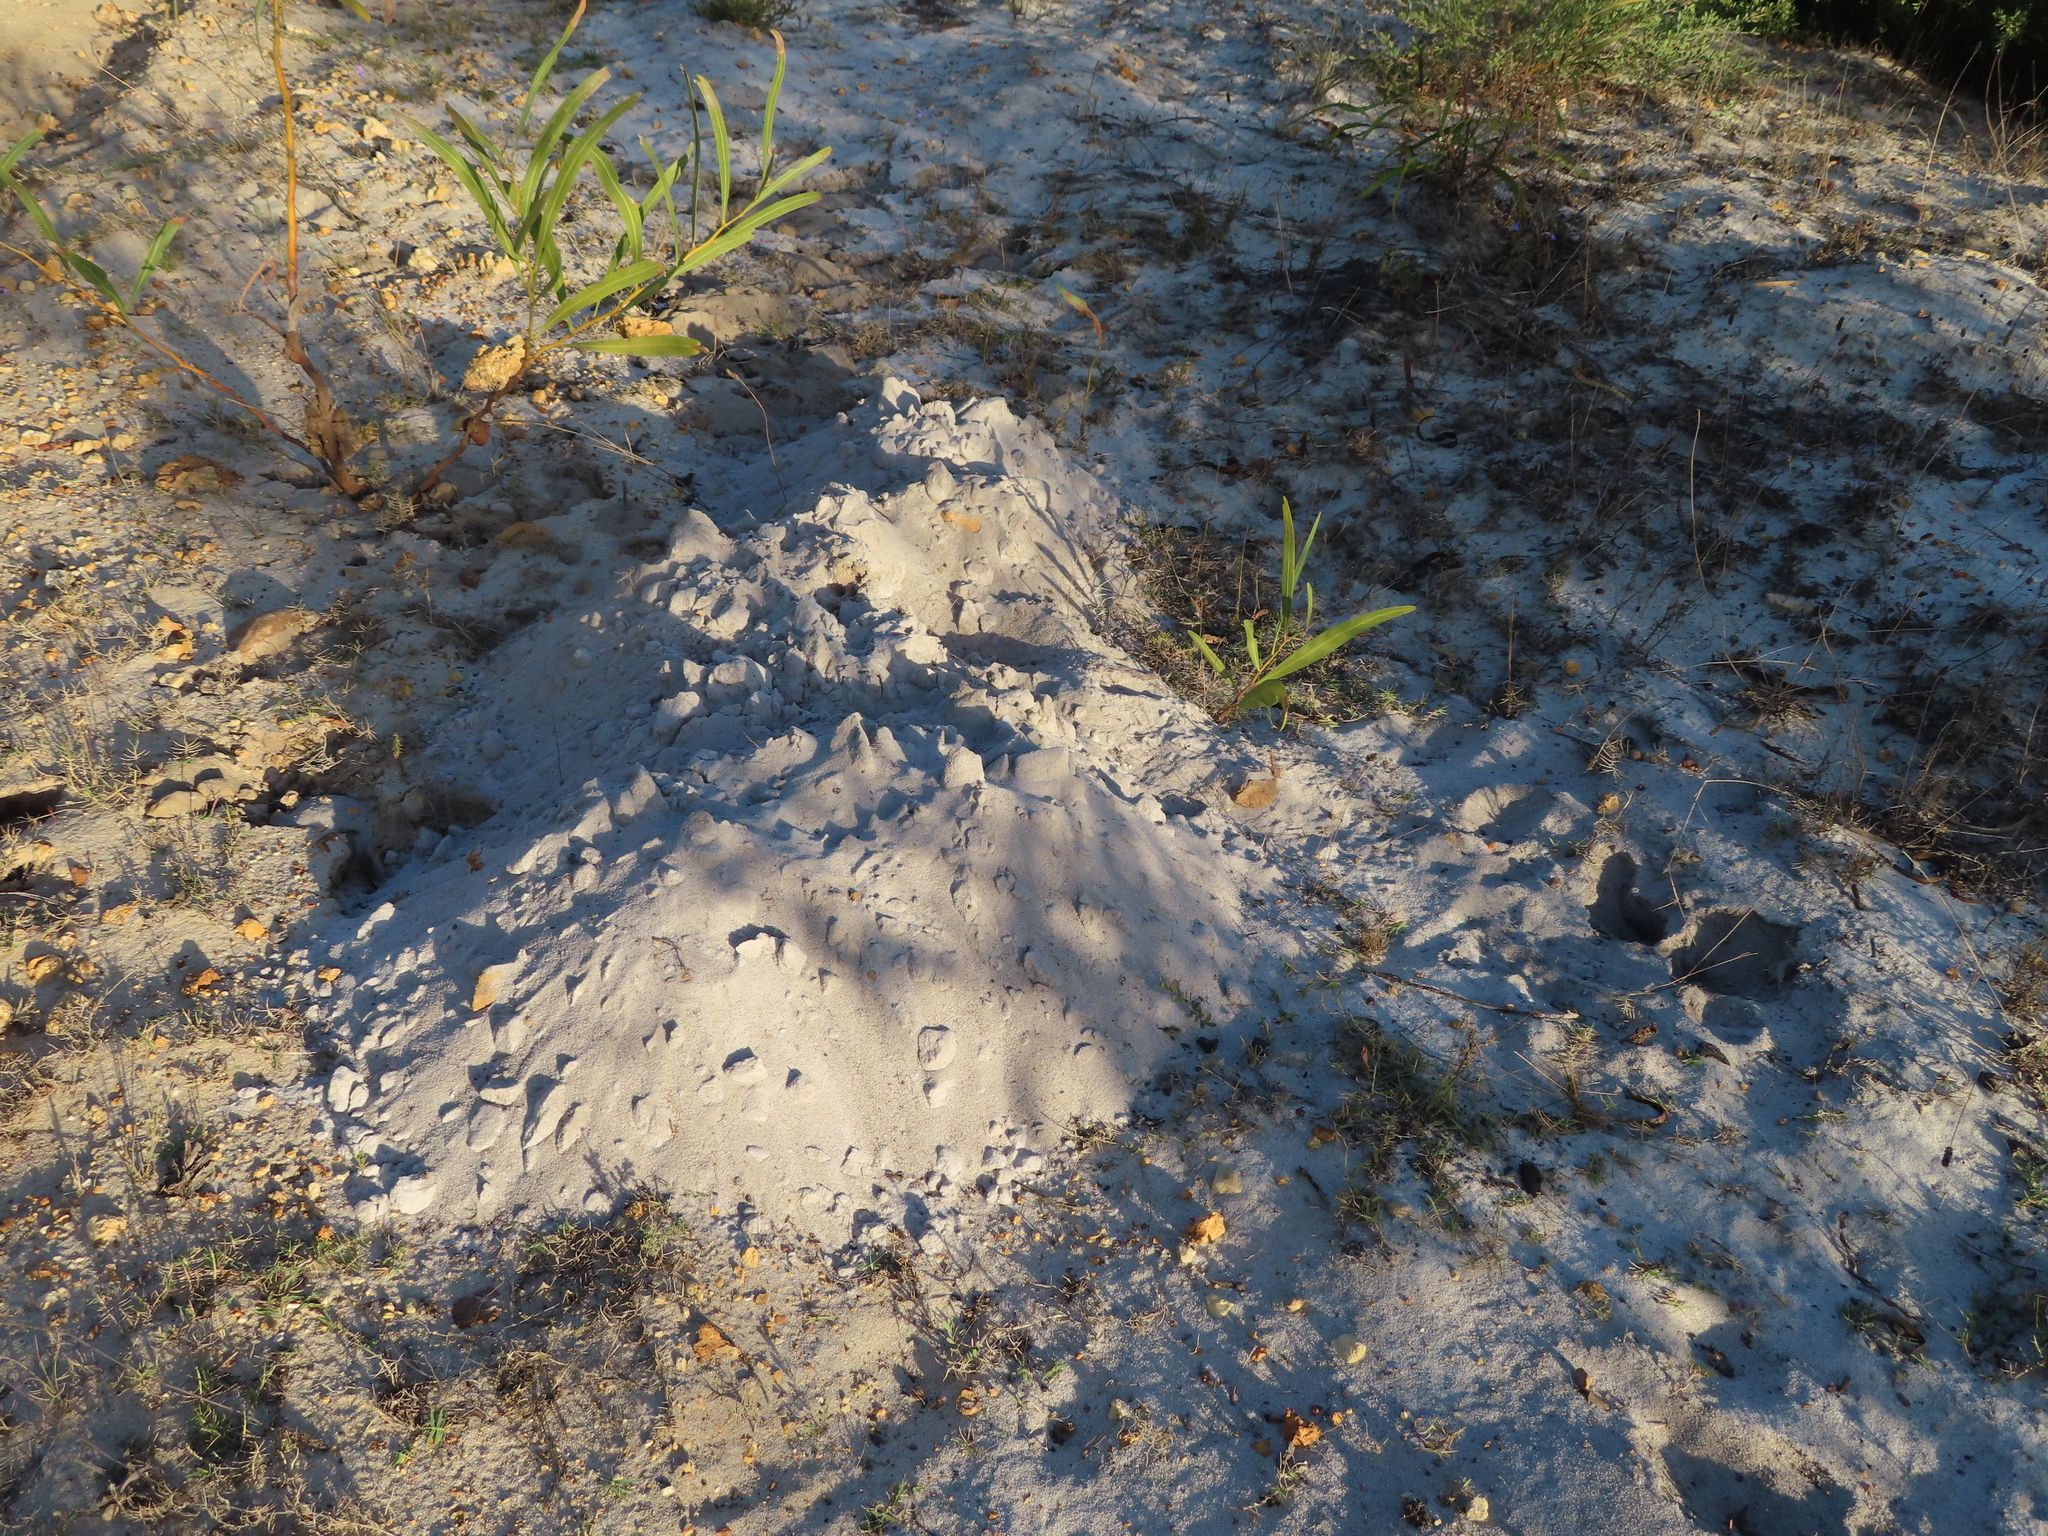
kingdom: Animalia
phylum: Chordata
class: Mammalia
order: Rodentia
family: Bathyergidae
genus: Bathyergus
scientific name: Bathyergus suillus
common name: Cape dune mole rat
